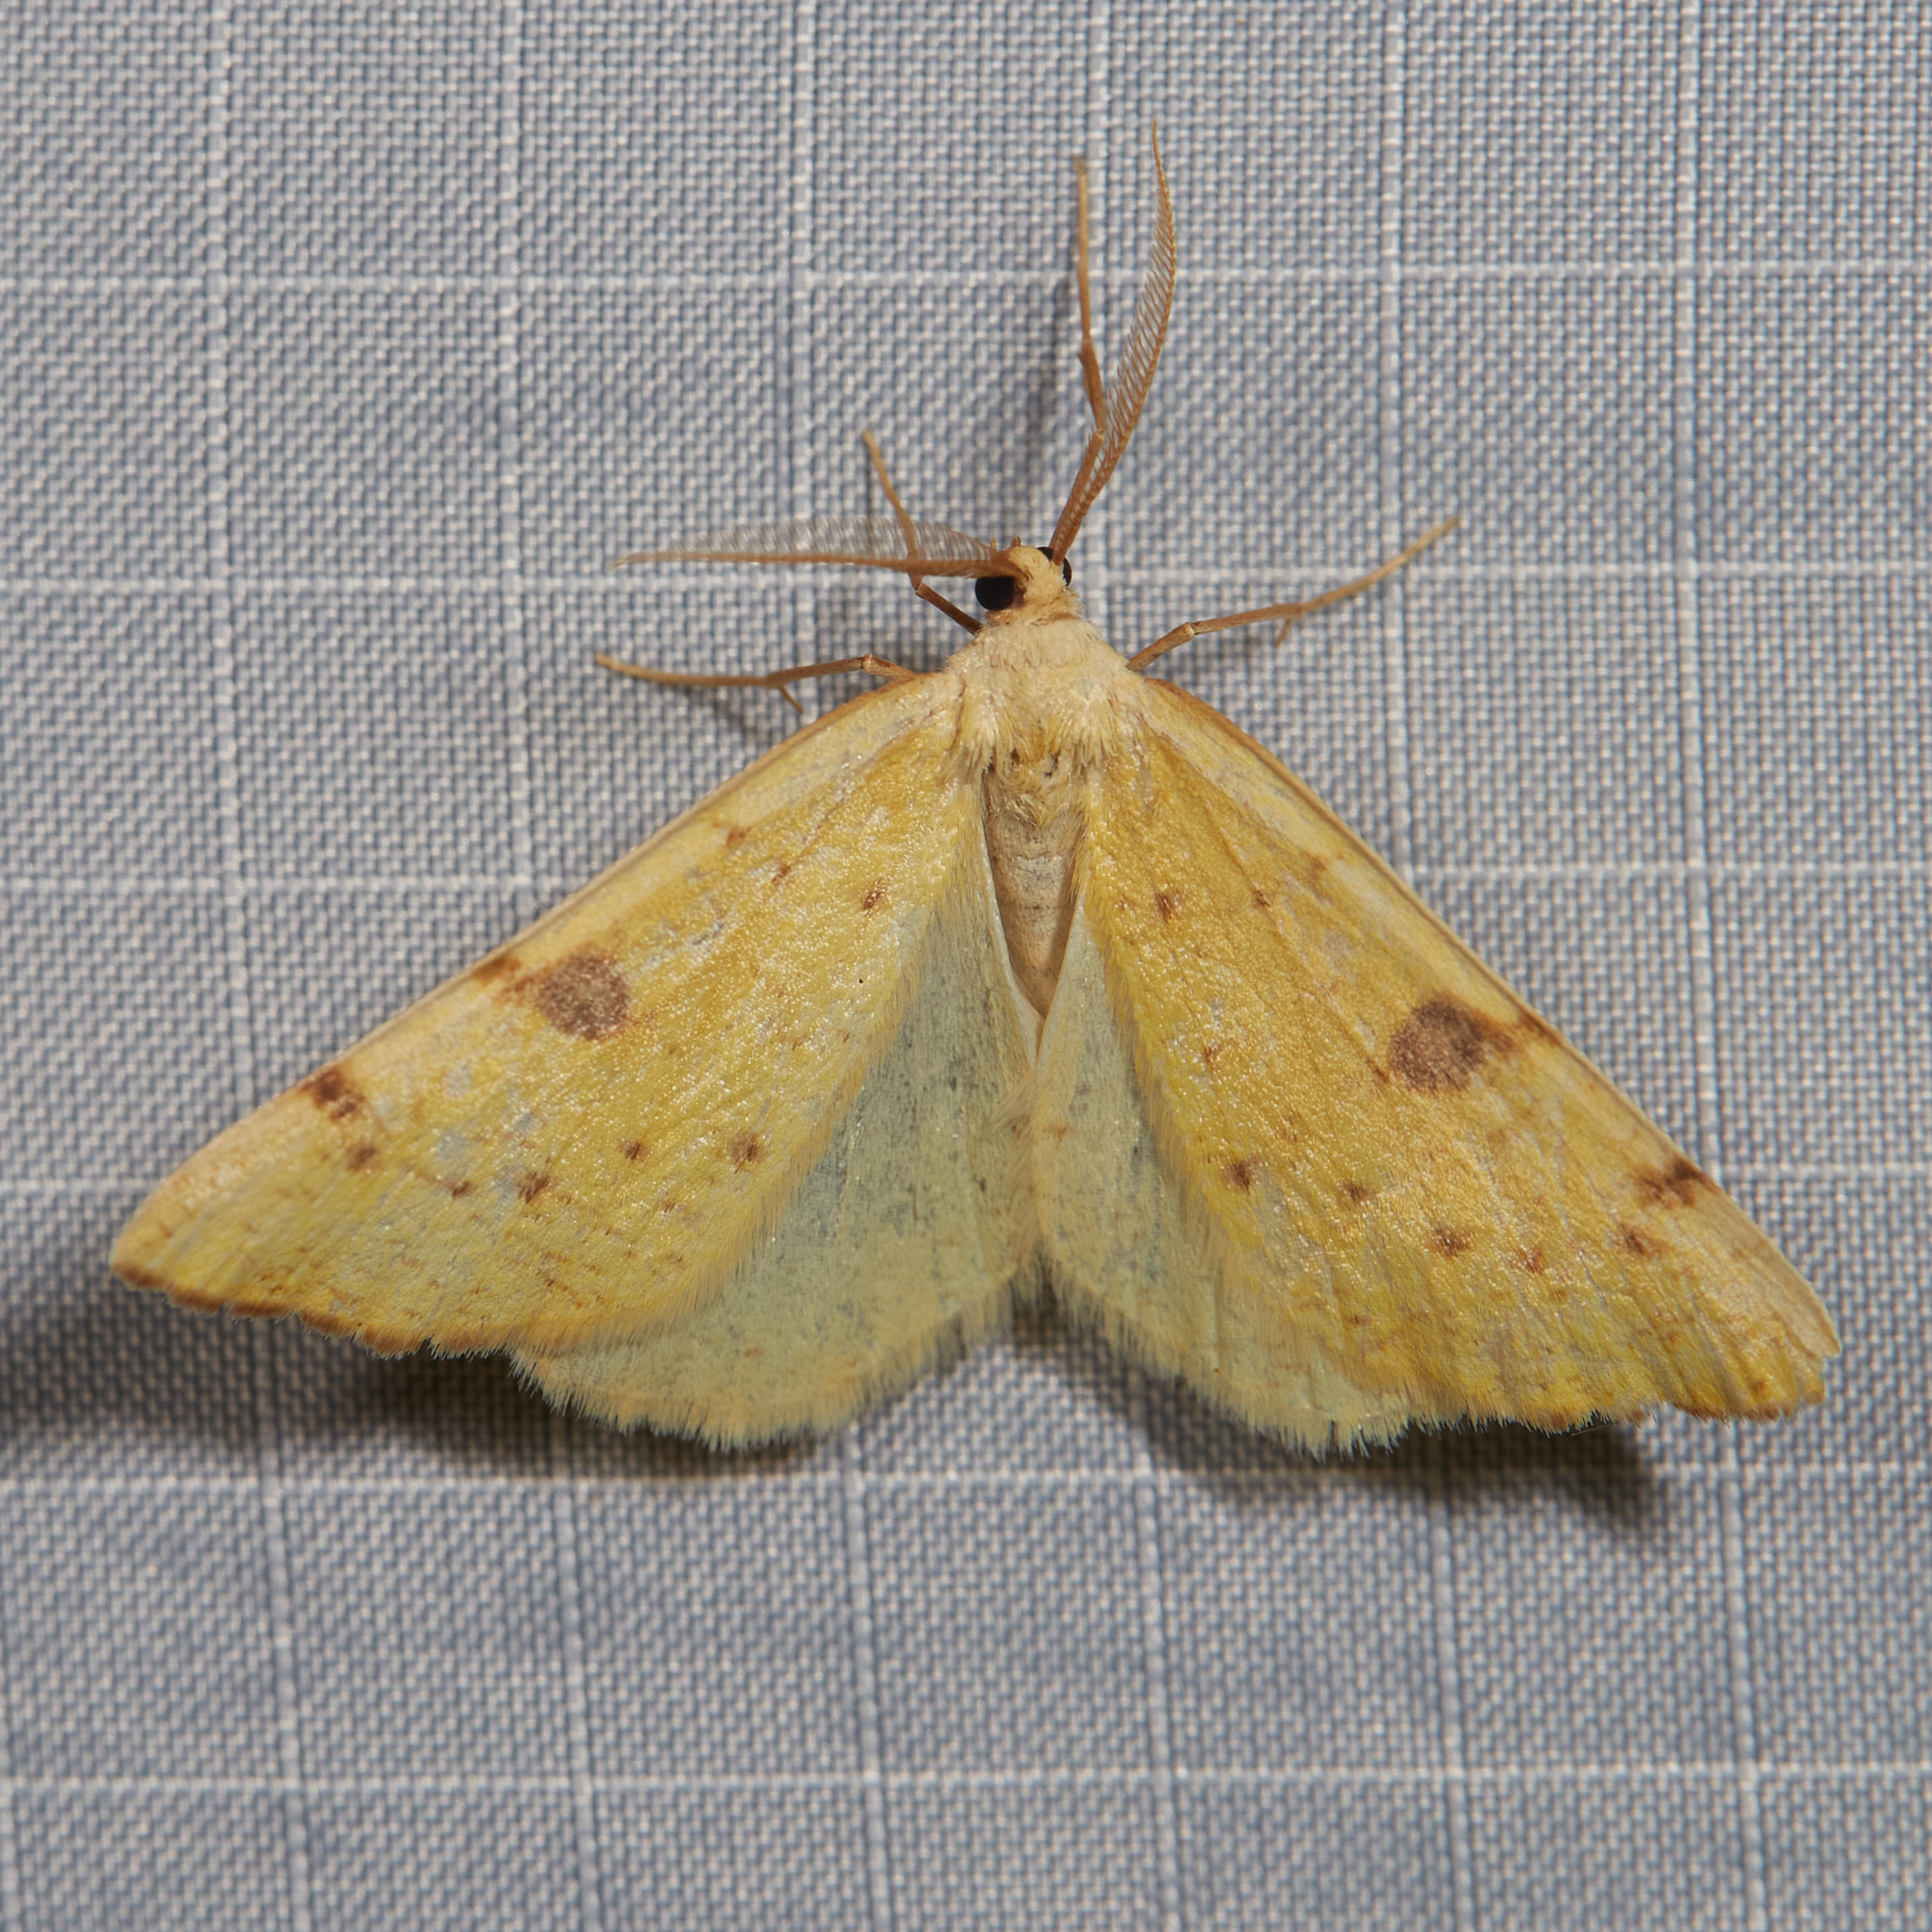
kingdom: Animalia
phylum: Arthropoda
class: Insecta
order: Lepidoptera
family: Geometridae
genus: Hesperumia
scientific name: Hesperumia sulphuraria
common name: Sulphur moth
